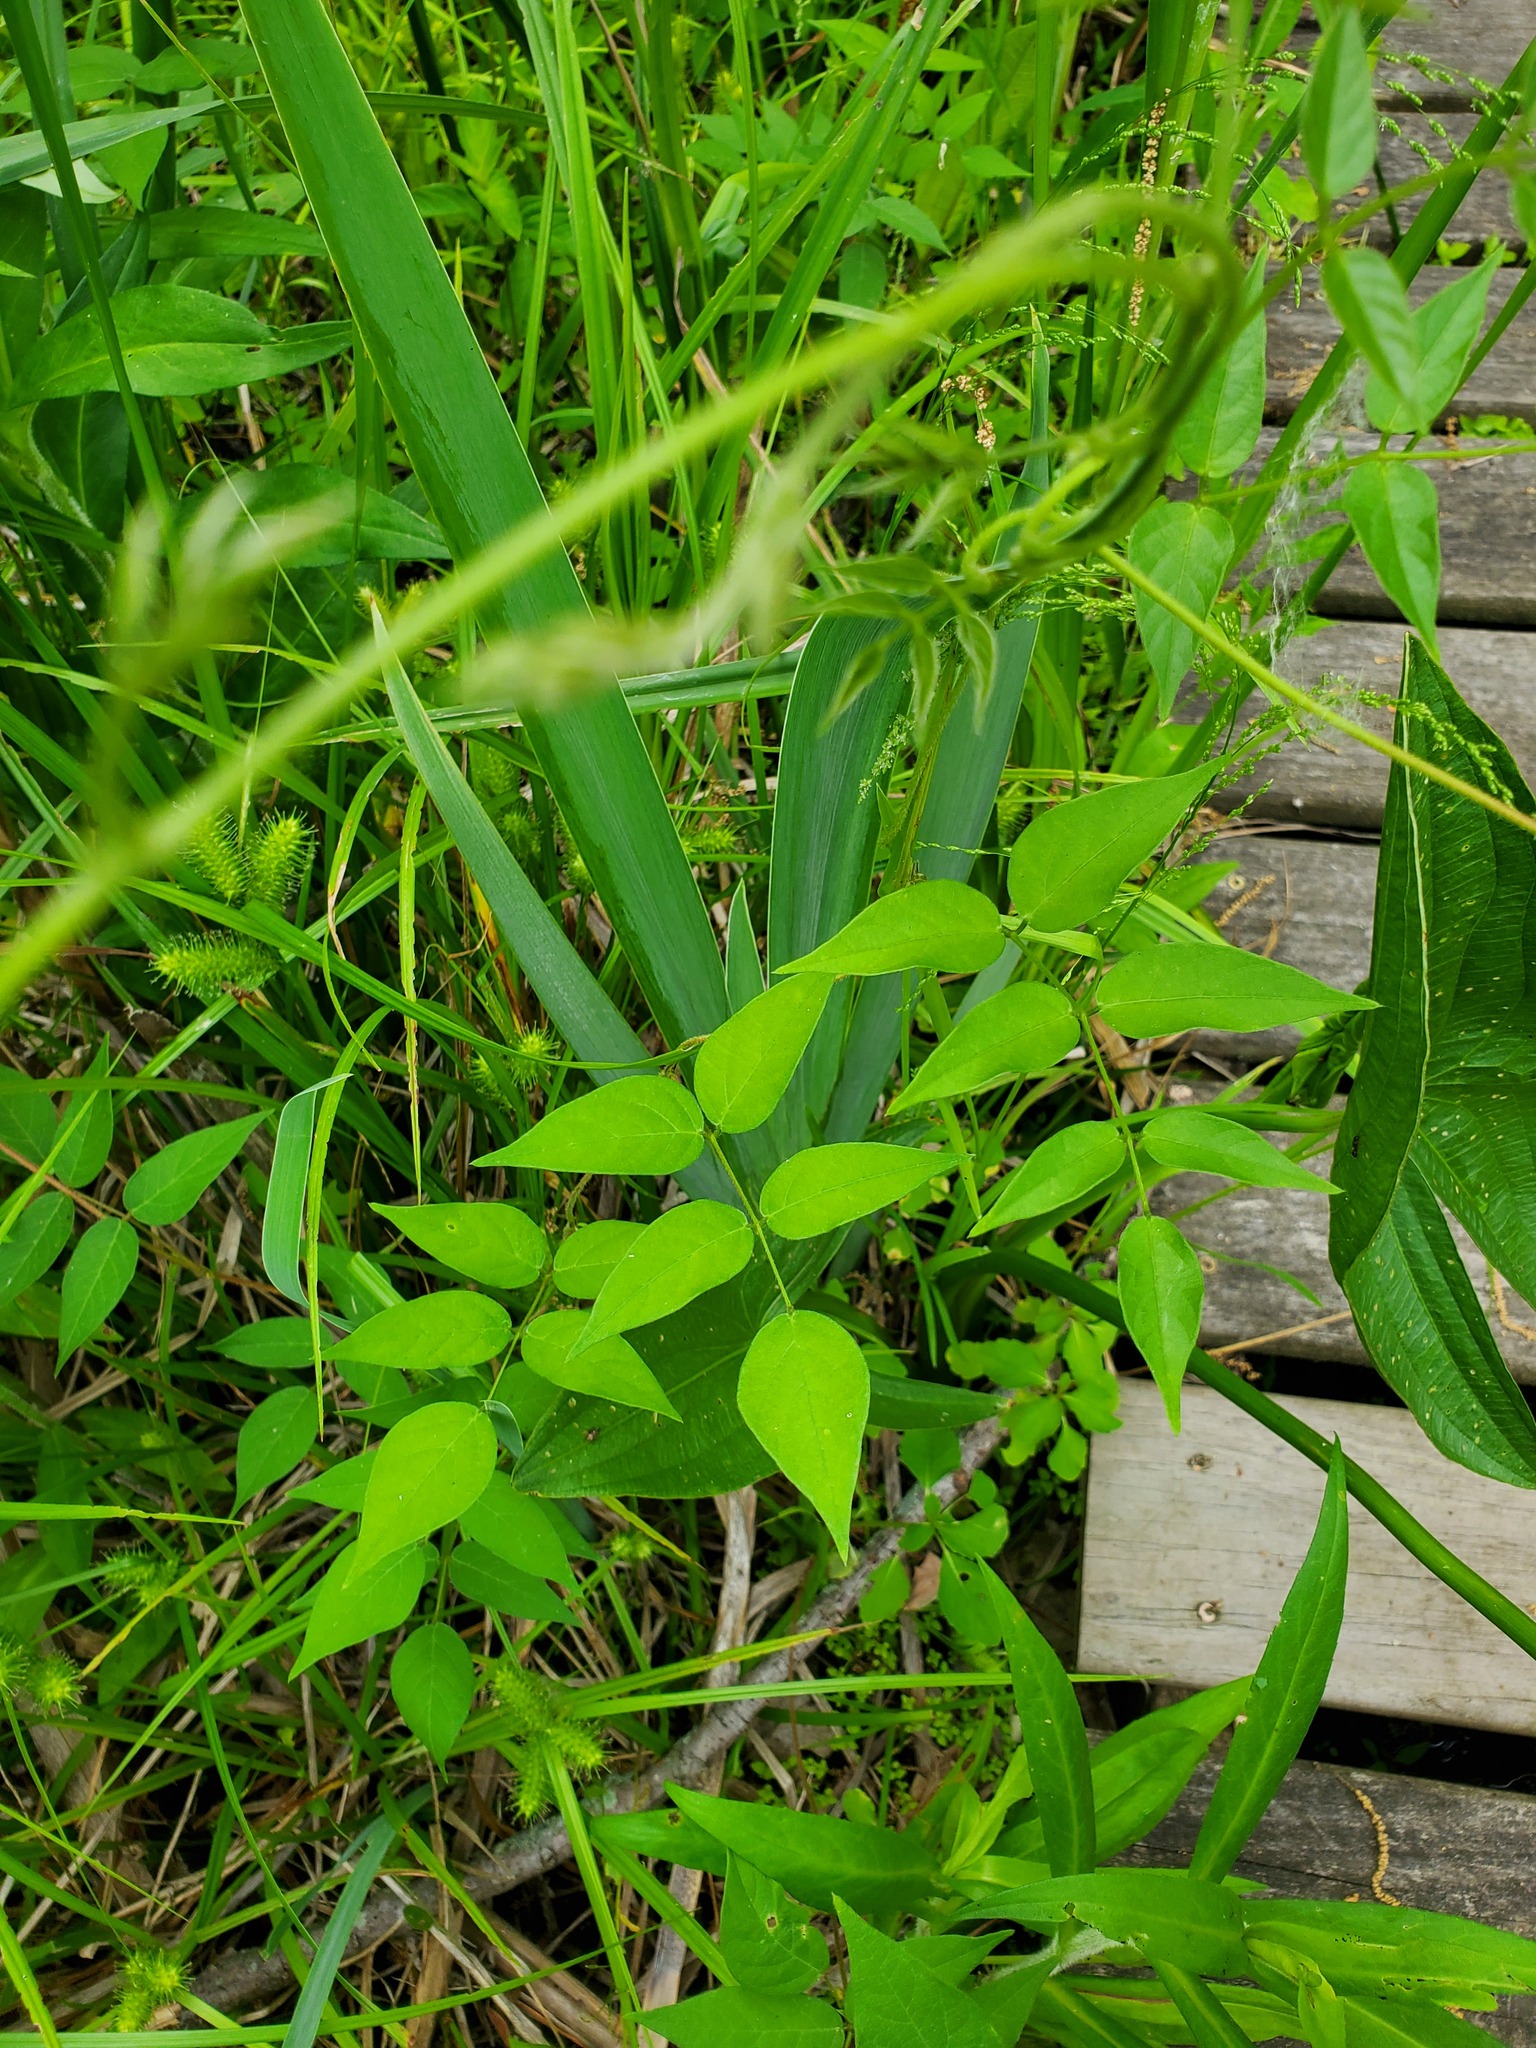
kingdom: Plantae
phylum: Tracheophyta
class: Magnoliopsida
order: Fabales
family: Fabaceae
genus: Apios
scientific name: Apios americana
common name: American potato-bean
